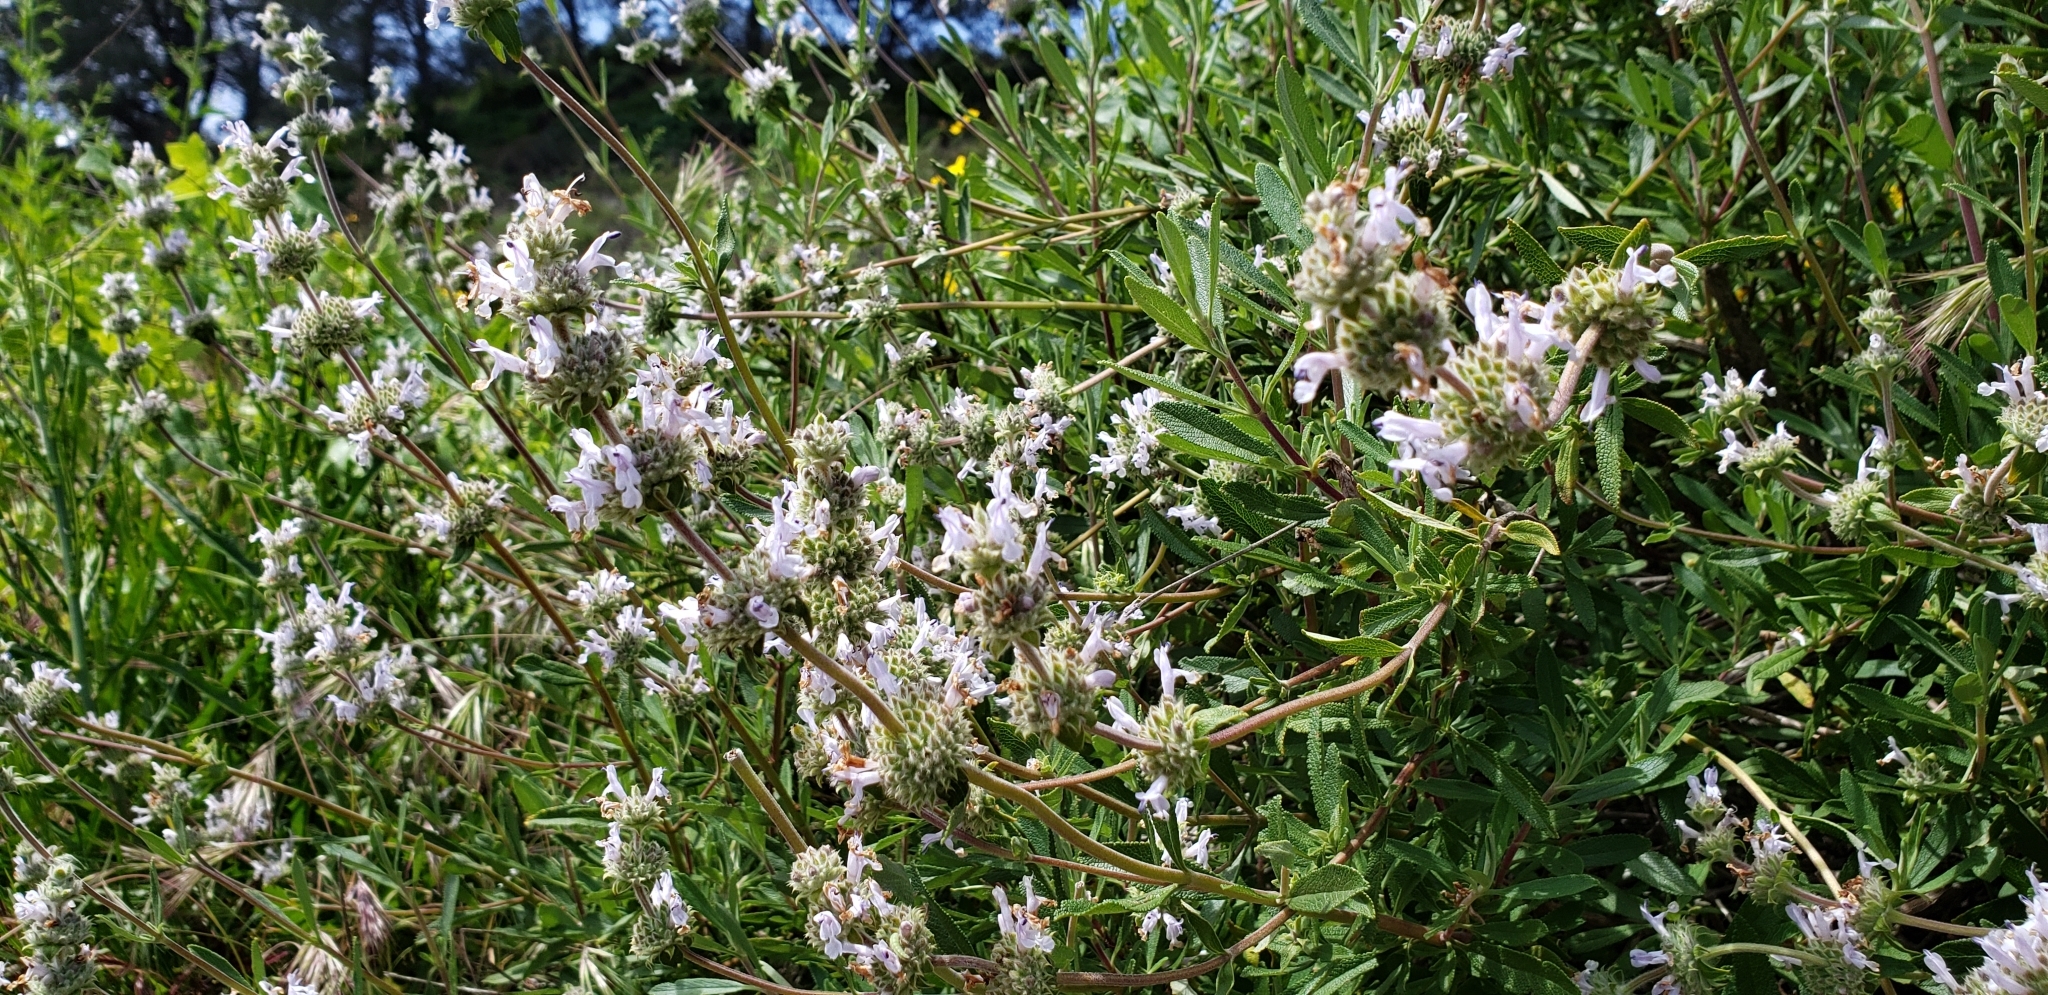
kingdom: Plantae
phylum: Tracheophyta
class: Magnoliopsida
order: Lamiales
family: Lamiaceae
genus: Salvia
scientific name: Salvia mellifera
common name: Black sage
